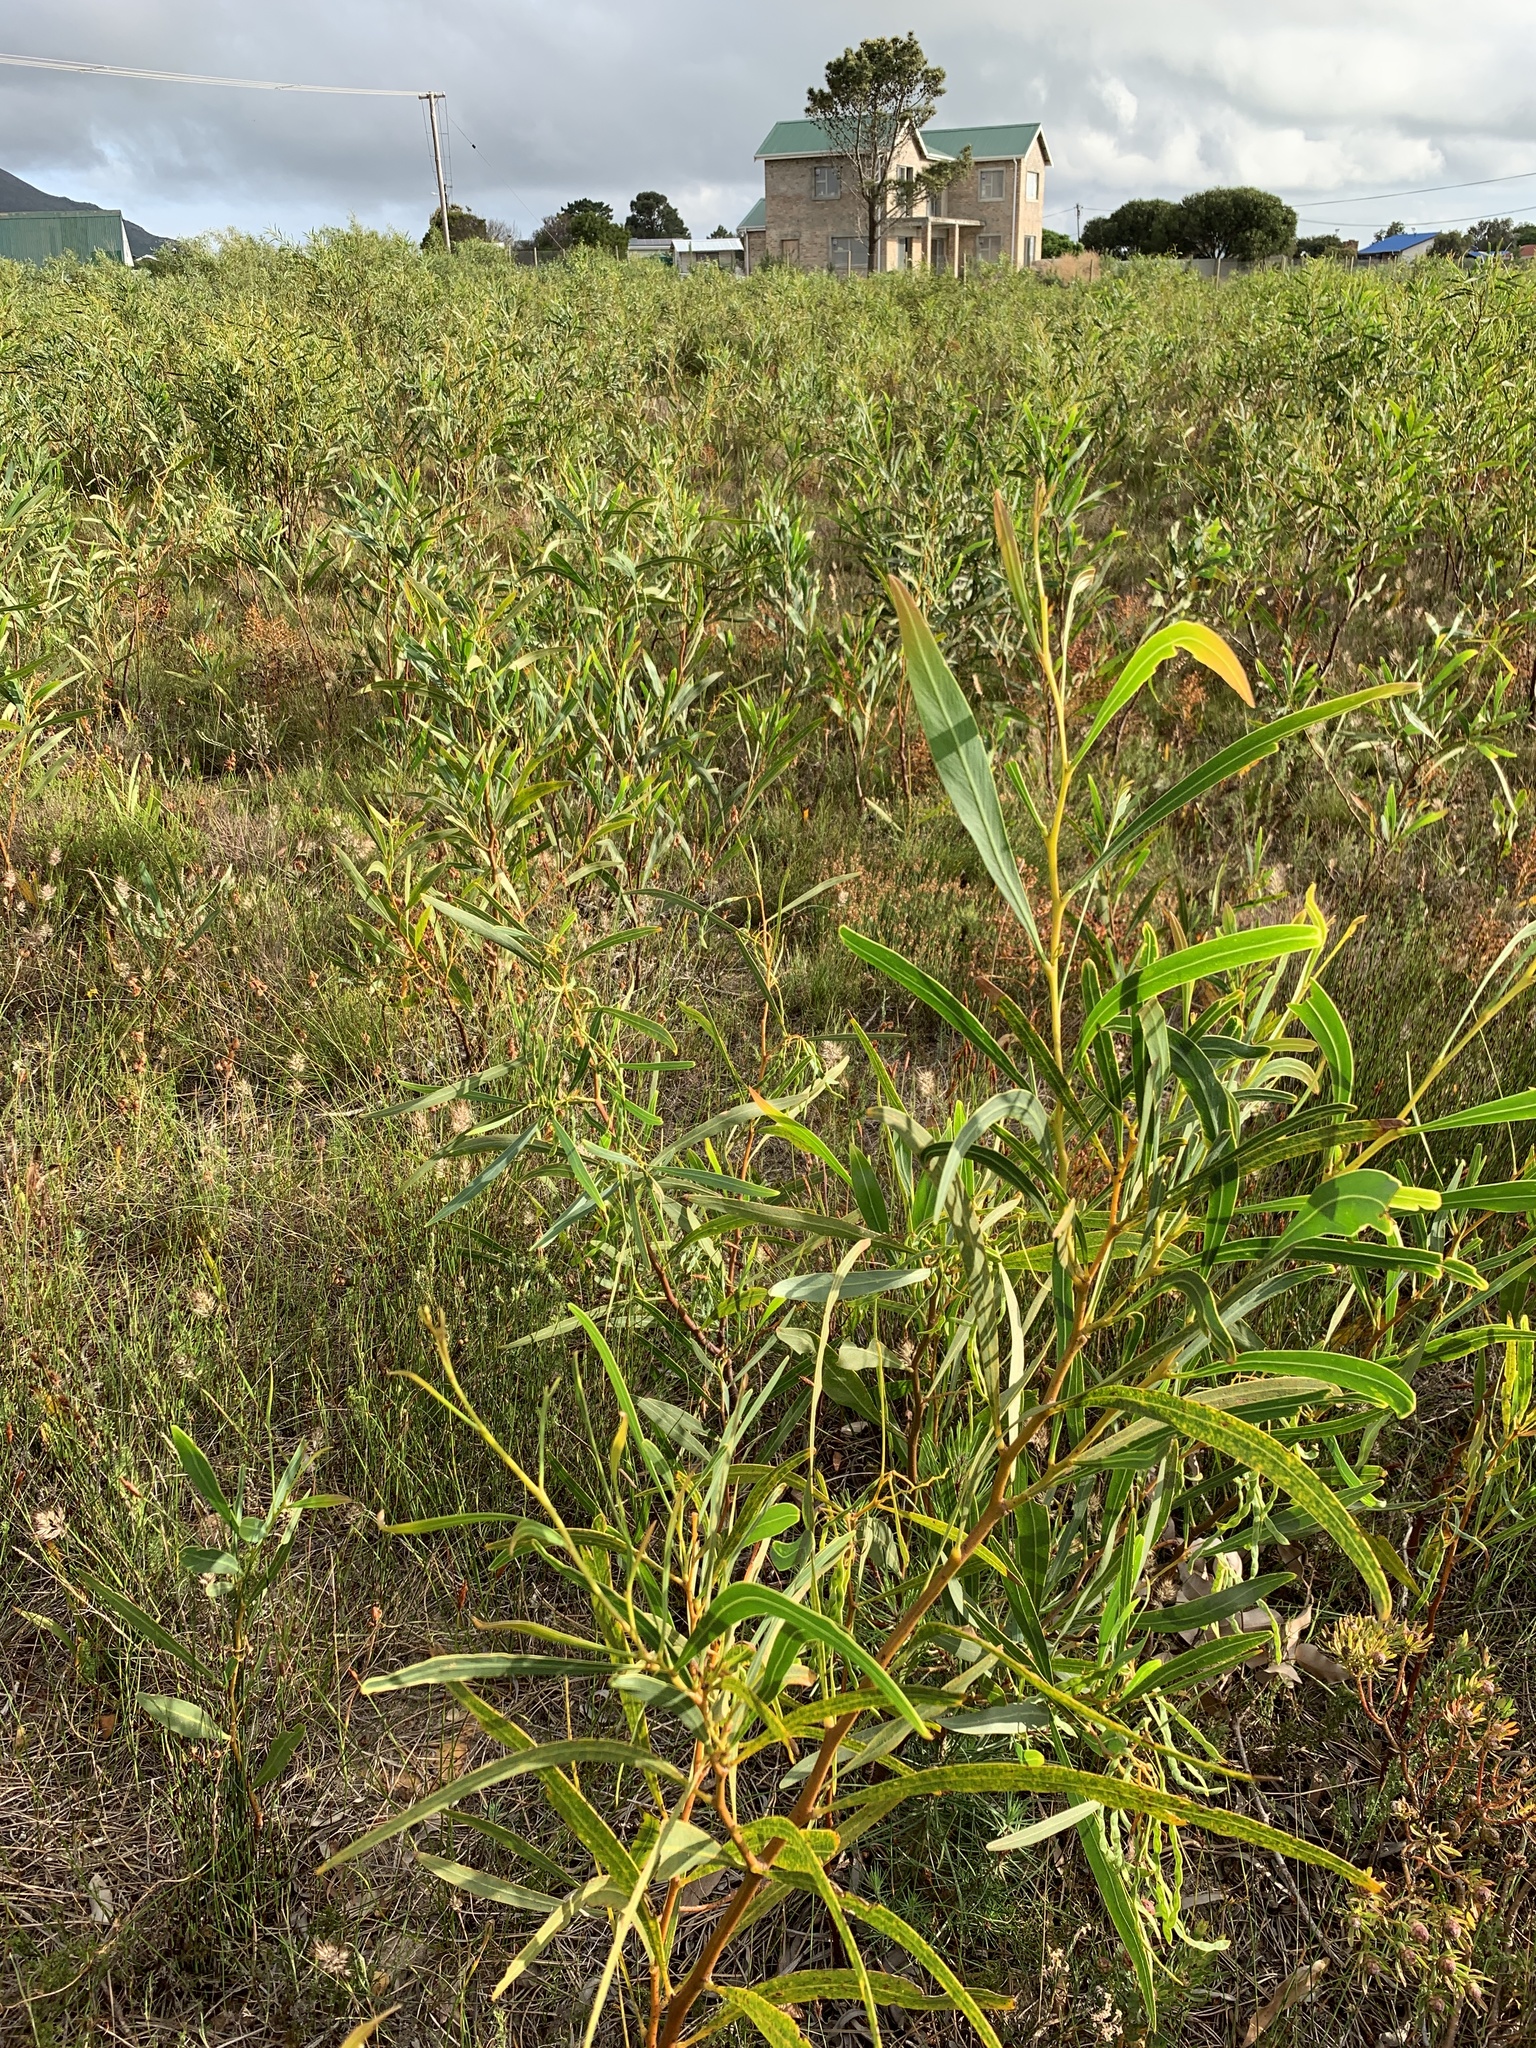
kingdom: Plantae
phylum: Tracheophyta
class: Magnoliopsida
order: Fabales
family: Fabaceae
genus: Acacia
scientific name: Acacia saligna
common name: Orange wattle
